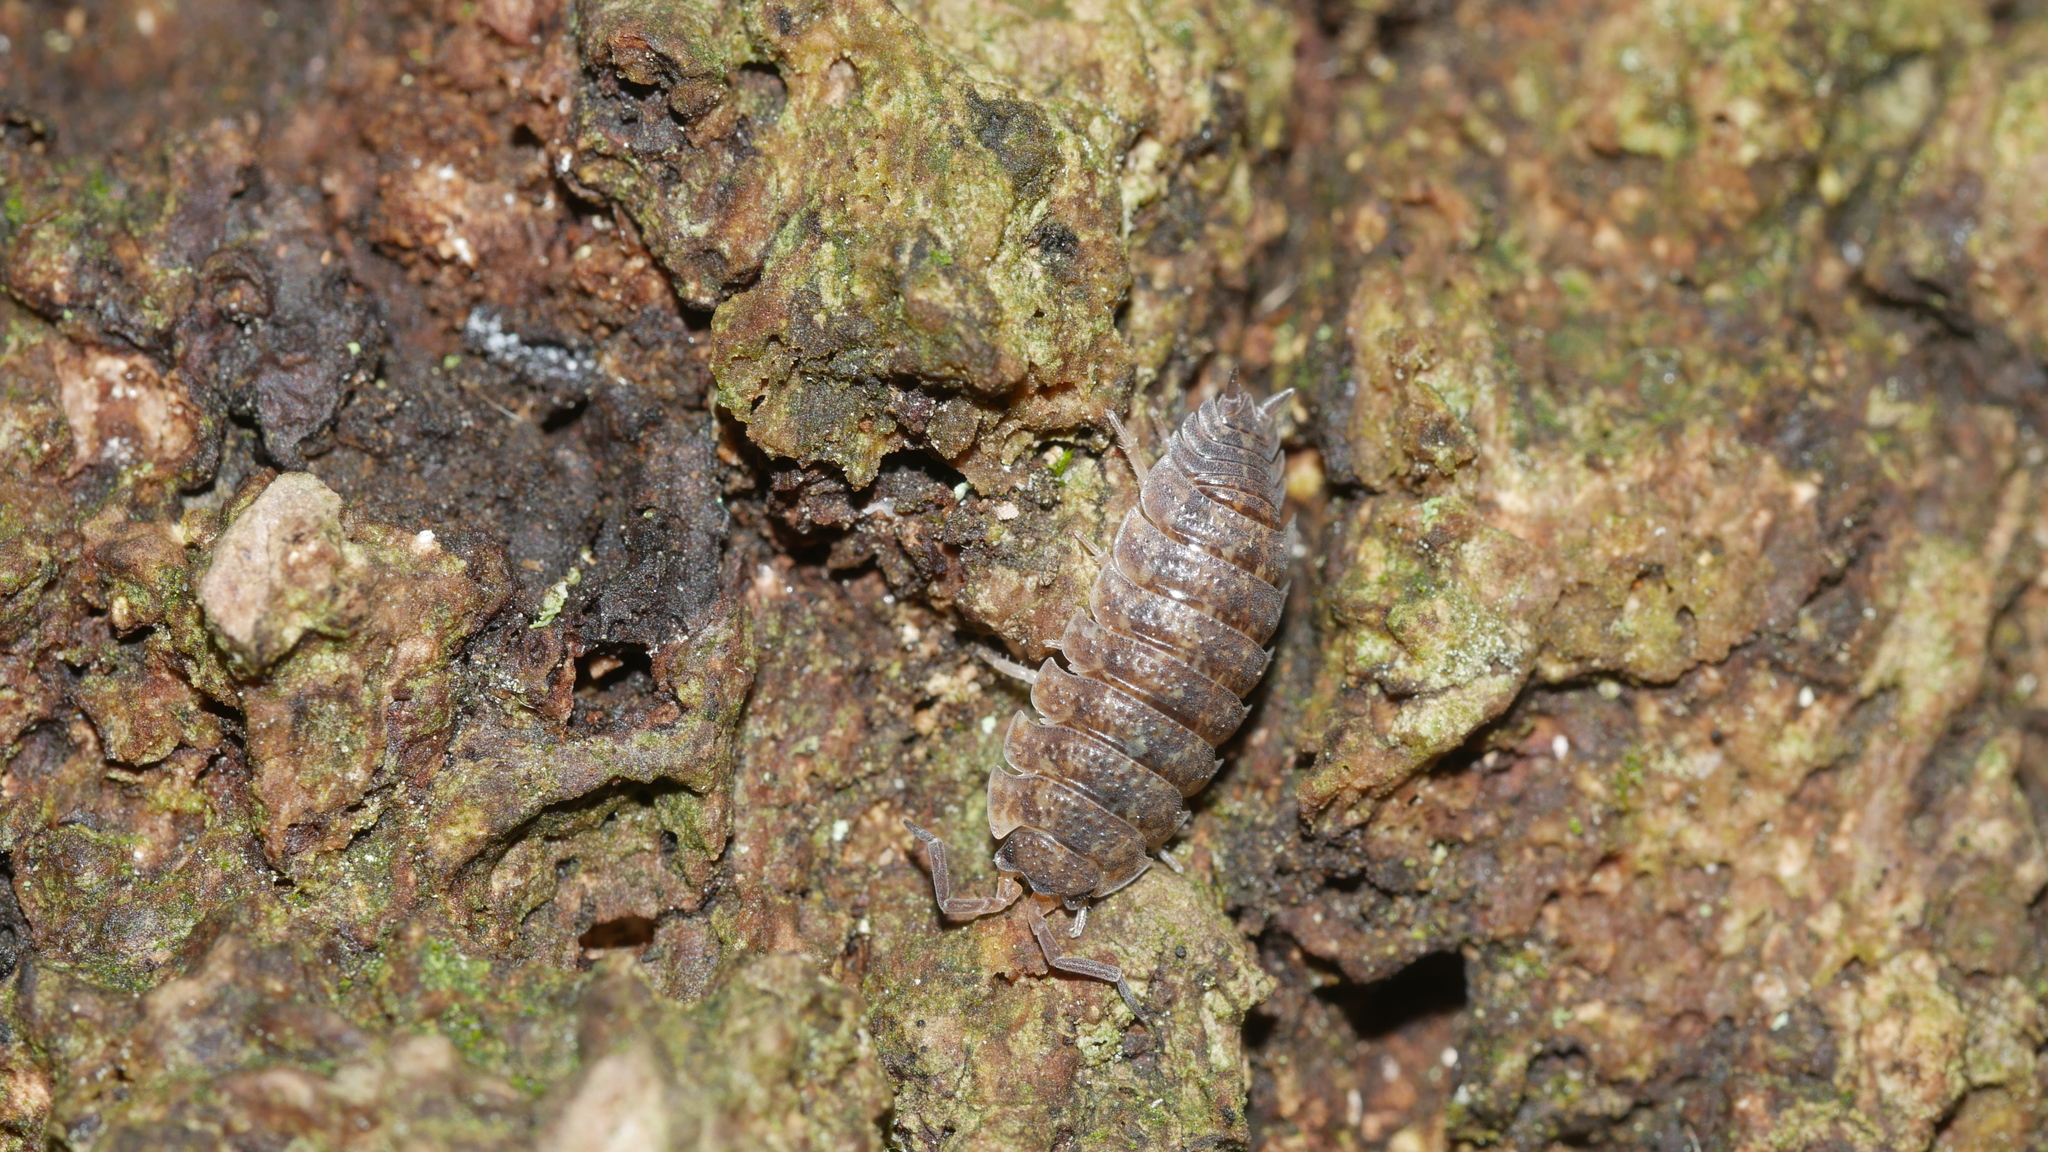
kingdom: Animalia
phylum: Arthropoda
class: Malacostraca
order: Isopoda
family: Porcellionidae
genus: Porcellio
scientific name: Porcellio scaber
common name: Common rough woodlouse
